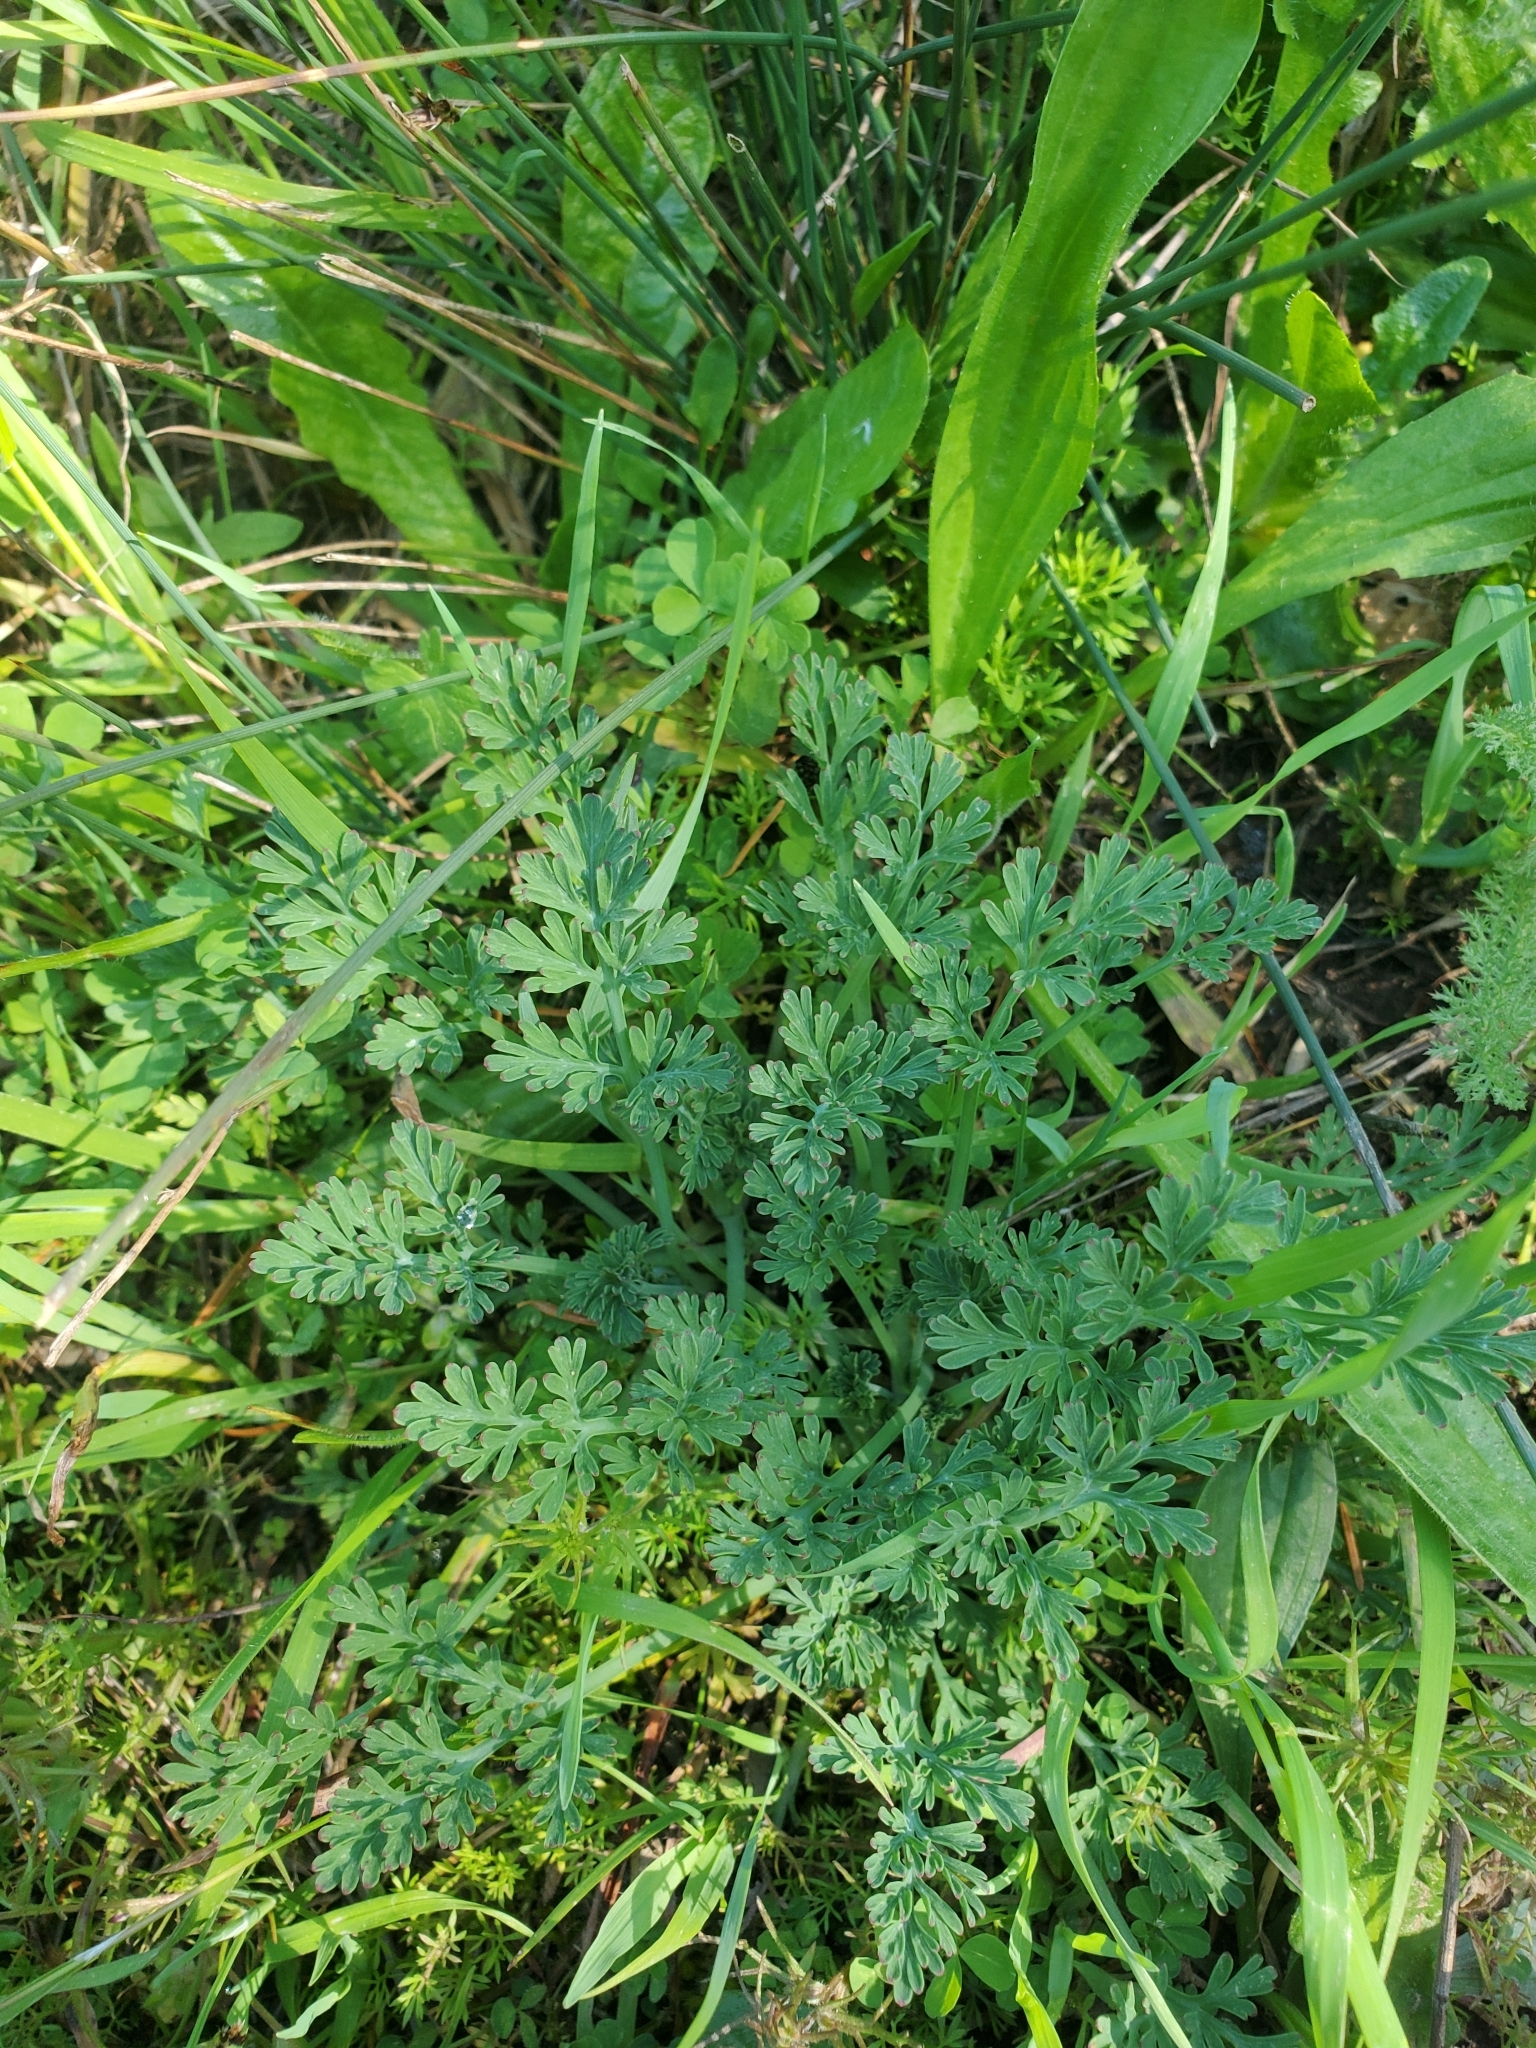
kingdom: Plantae
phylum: Tracheophyta
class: Magnoliopsida
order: Ranunculales
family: Papaveraceae
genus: Eschscholzia
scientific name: Eschscholzia californica
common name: California poppy
